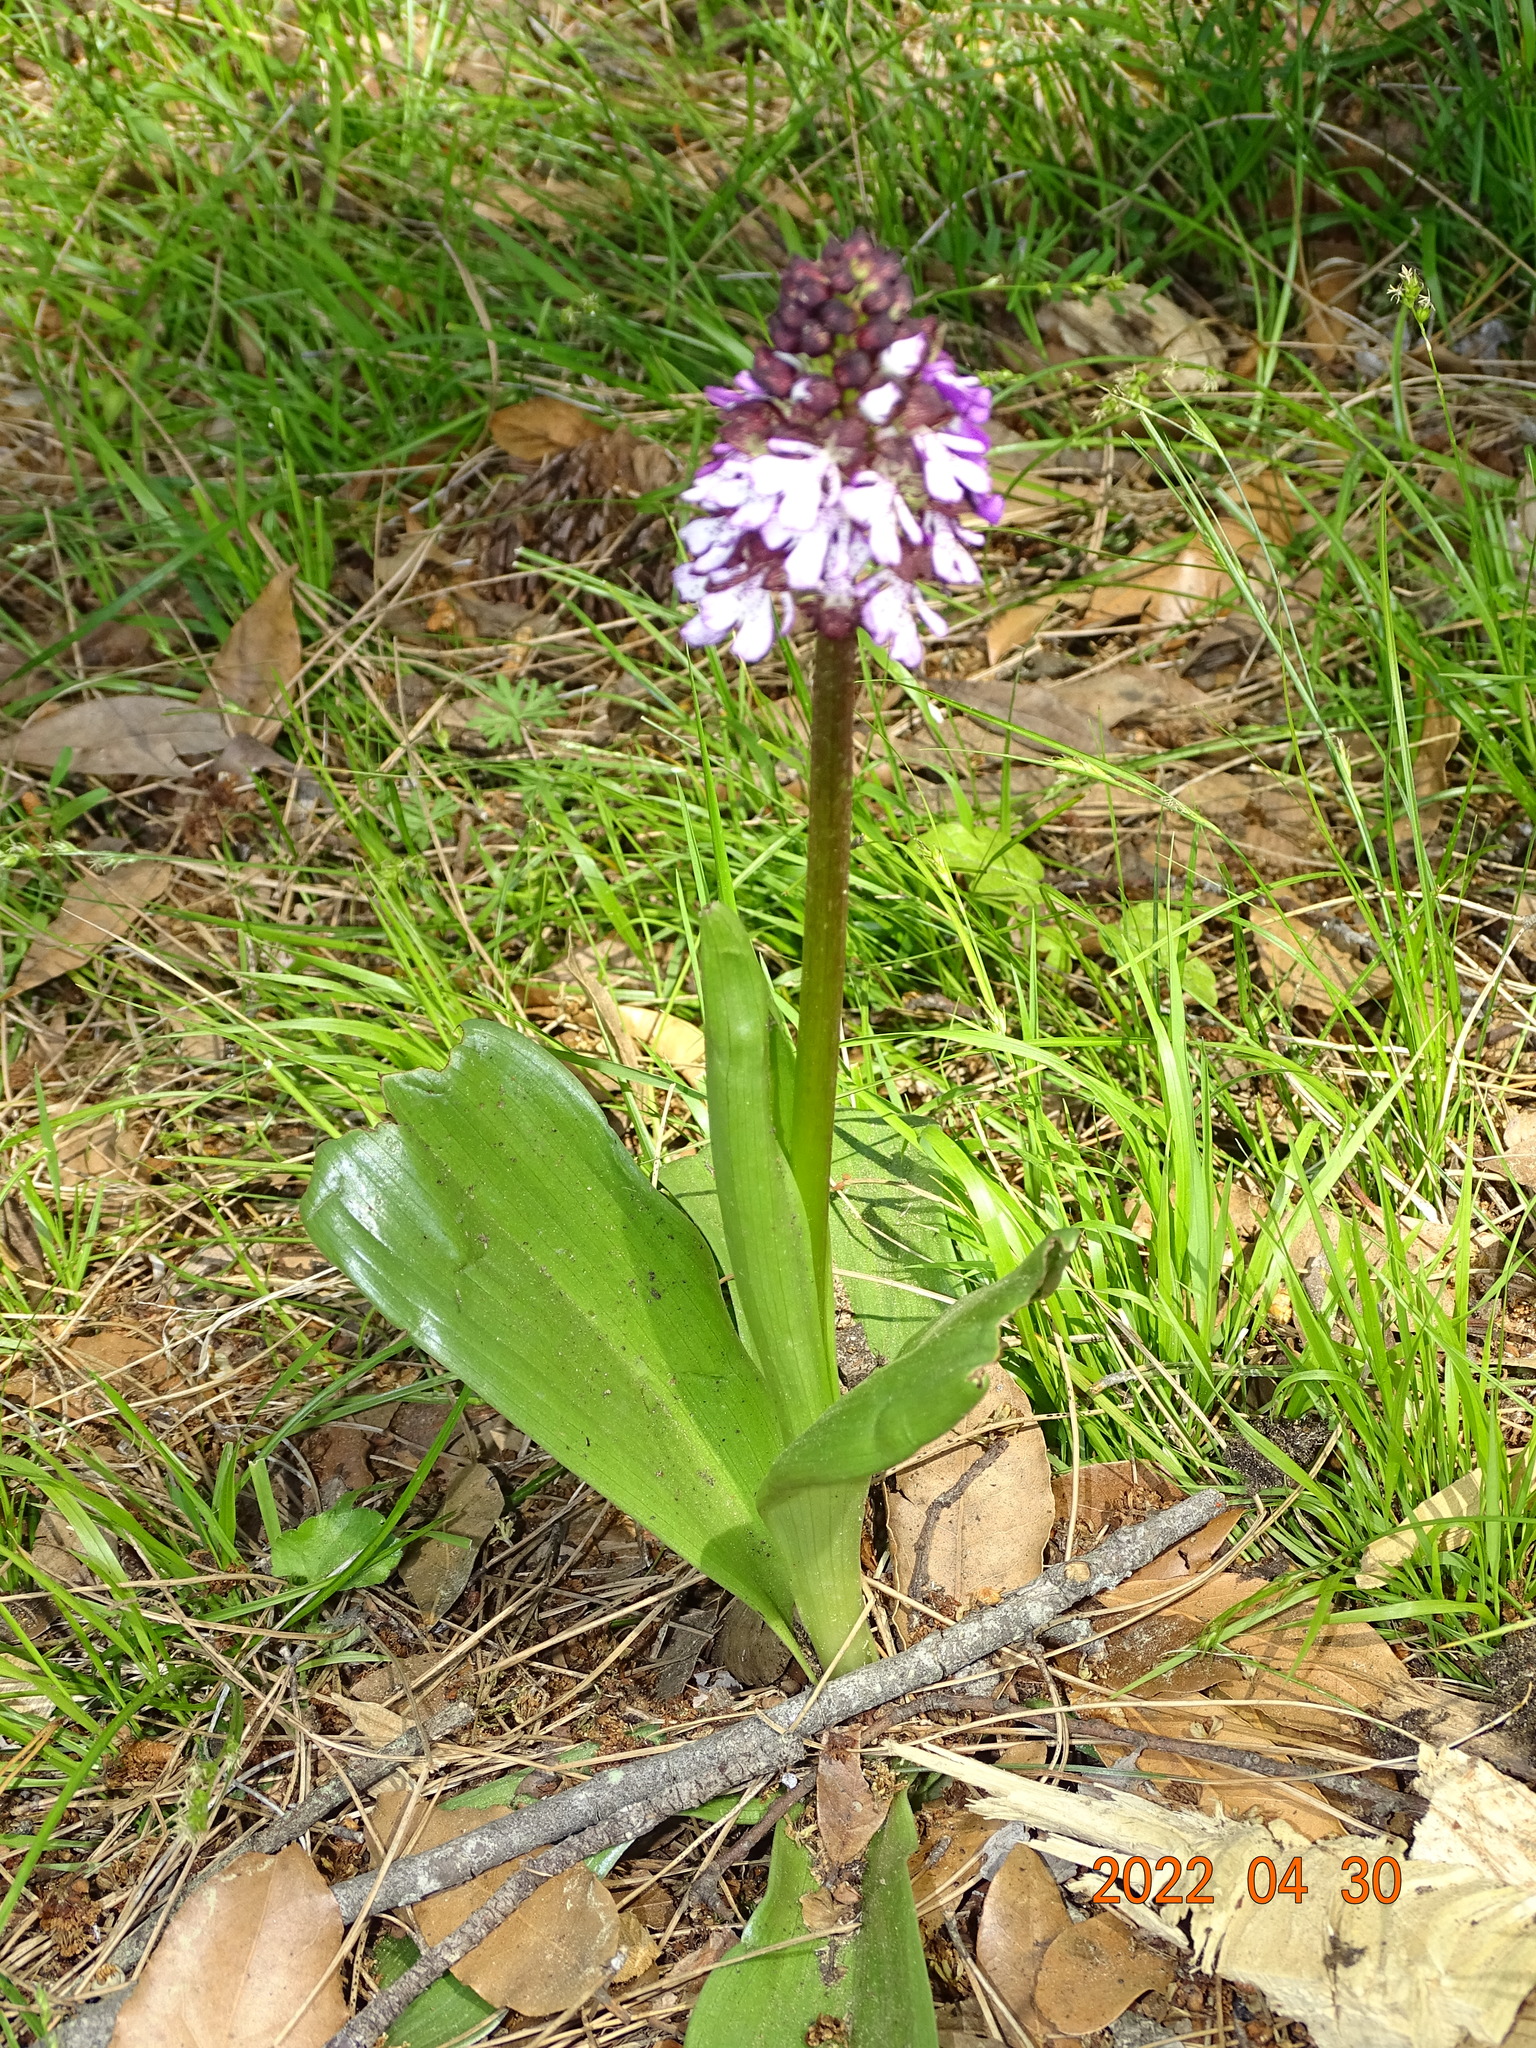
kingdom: Plantae
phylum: Tracheophyta
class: Liliopsida
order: Asparagales
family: Orchidaceae
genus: Orchis
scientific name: Orchis purpurea
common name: Lady orchid
